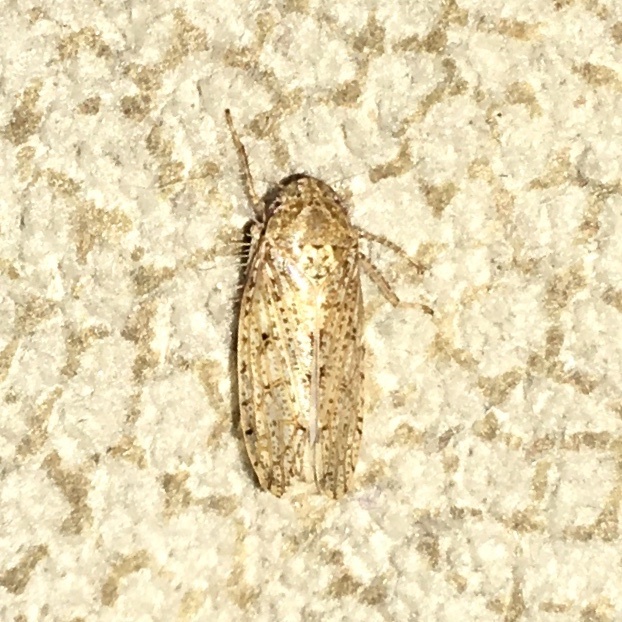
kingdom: Animalia
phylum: Arthropoda
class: Insecta
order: Hemiptera
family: Cicadellidae
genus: Curtara
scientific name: Curtara insularis
